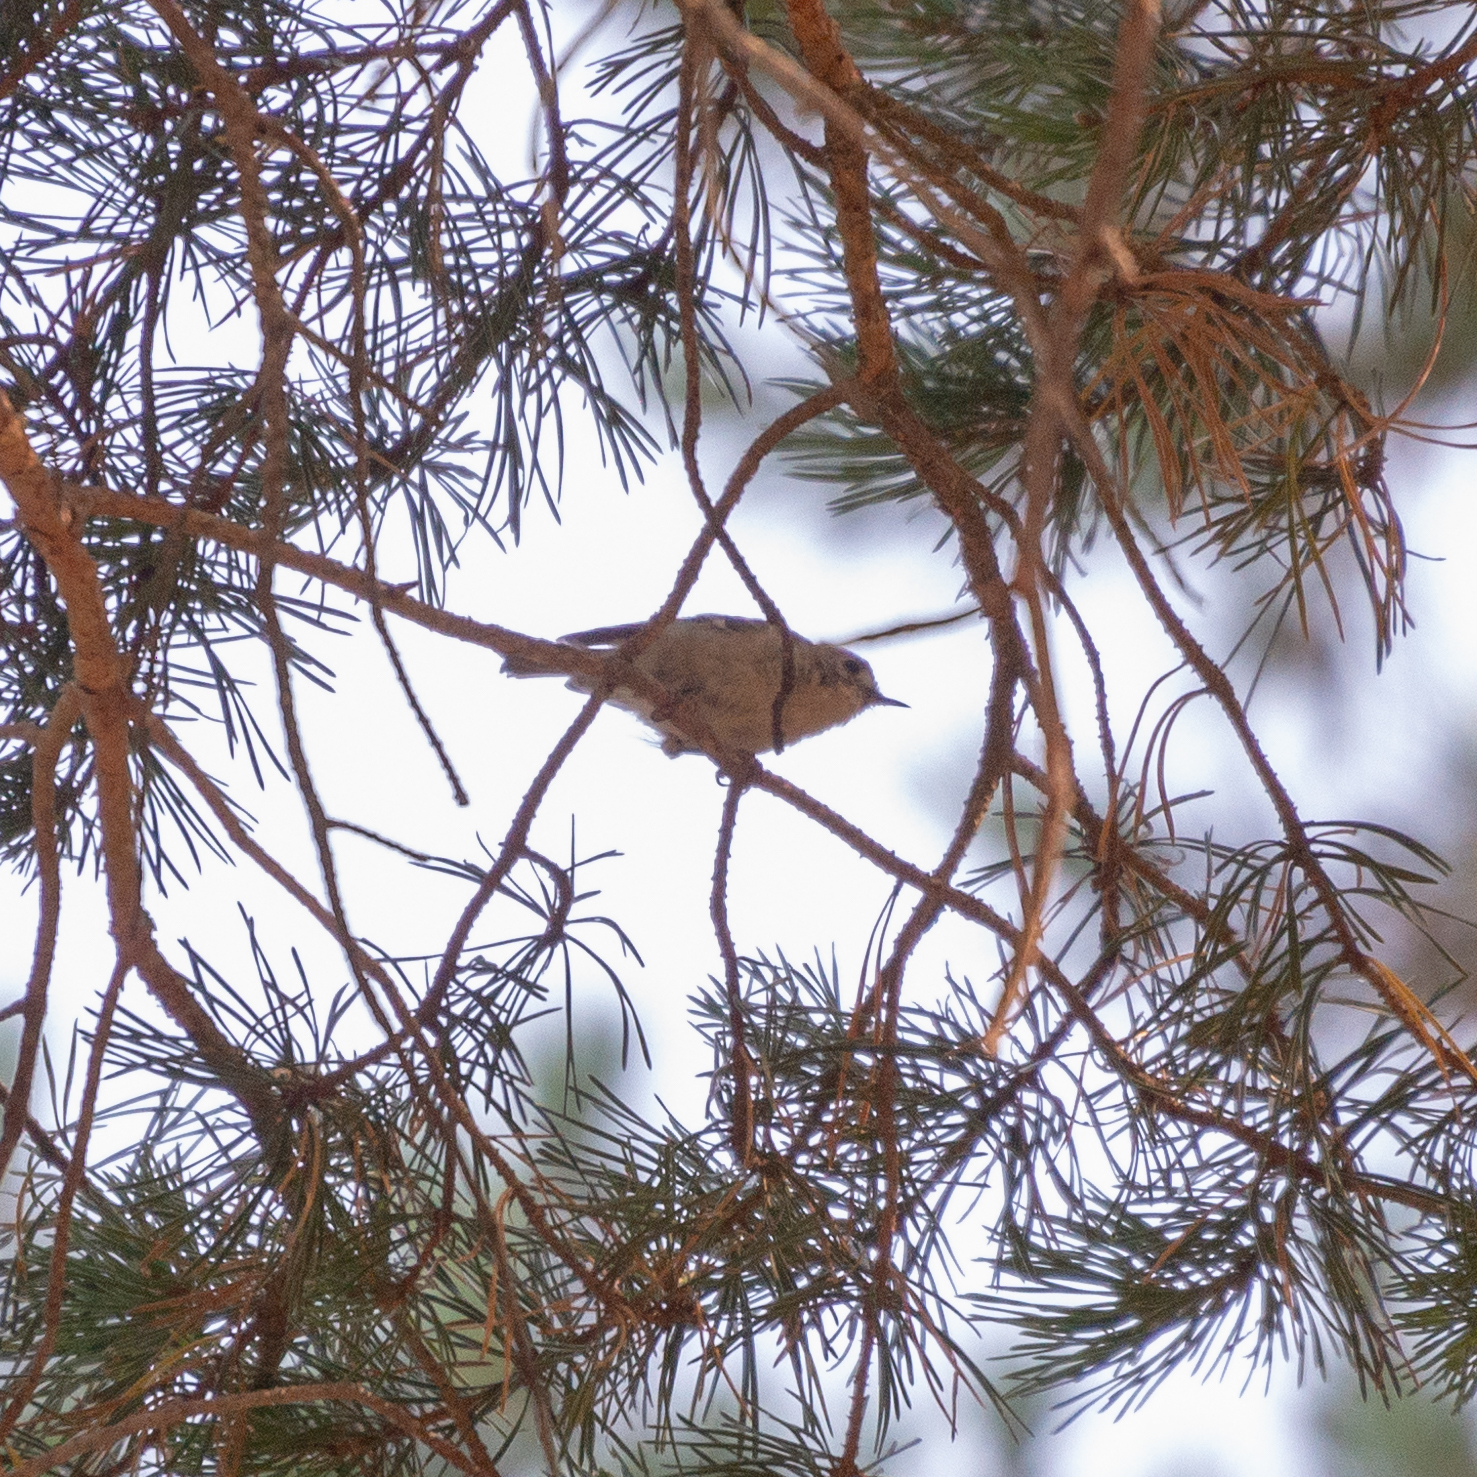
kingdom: Animalia
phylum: Chordata
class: Aves
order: Passeriformes
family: Regulidae
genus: Regulus
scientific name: Regulus regulus
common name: Goldcrest
